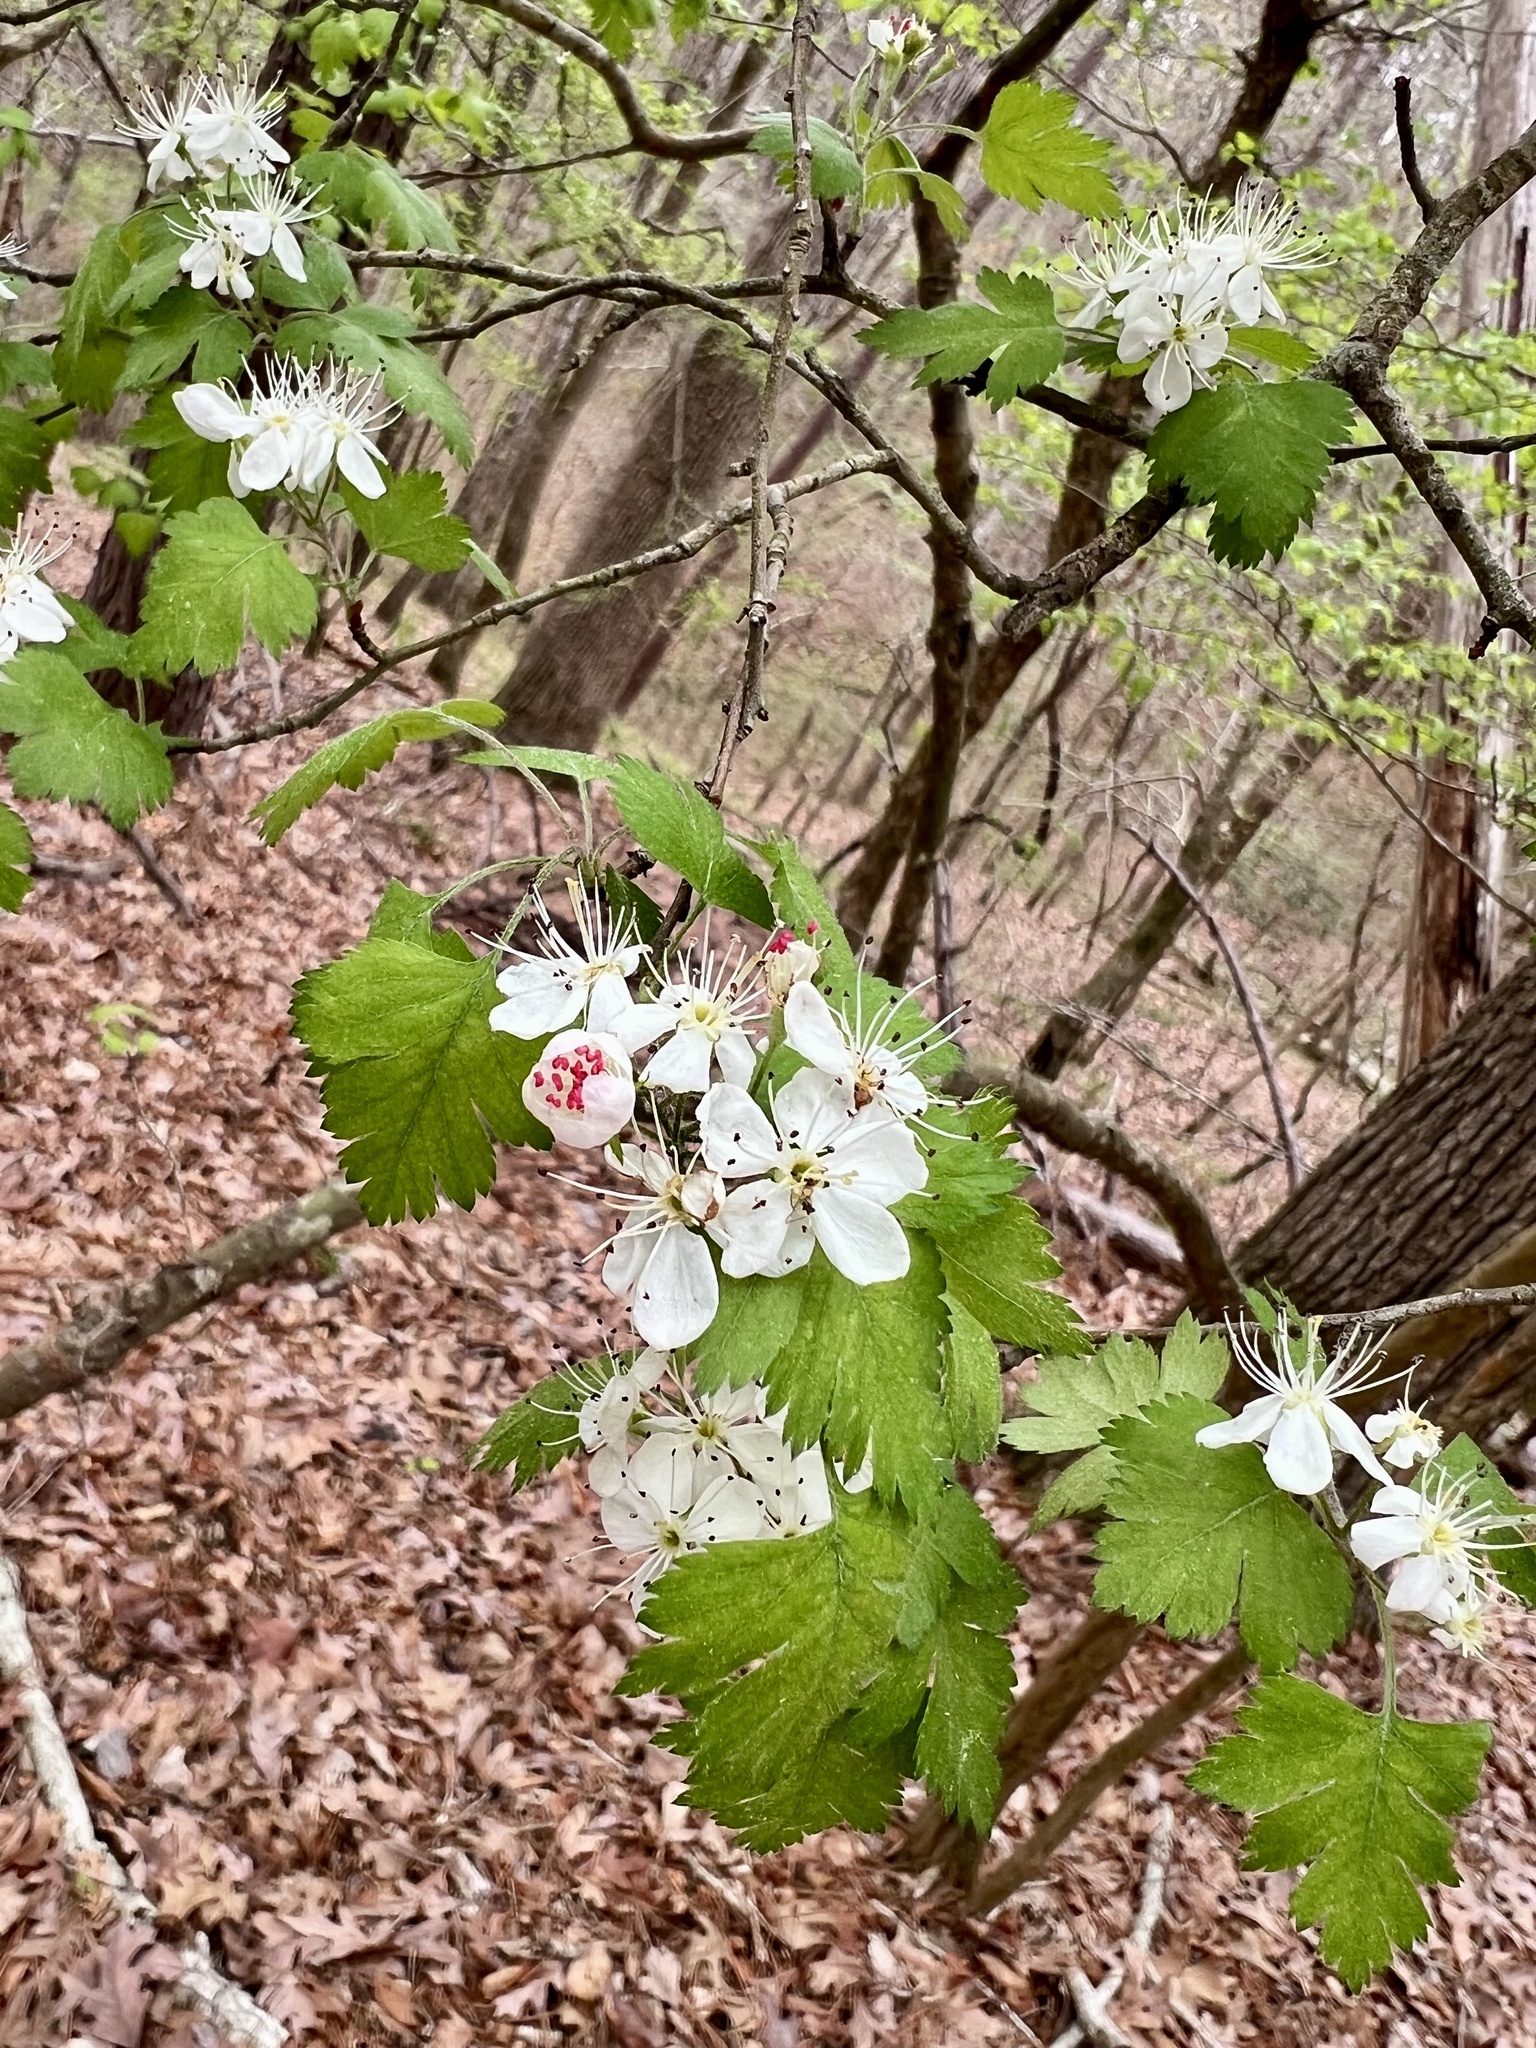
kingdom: Plantae
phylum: Tracheophyta
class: Magnoliopsida
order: Rosales
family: Rosaceae
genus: Crataegus
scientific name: Crataegus marshallii
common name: Parsley-hawthorn
